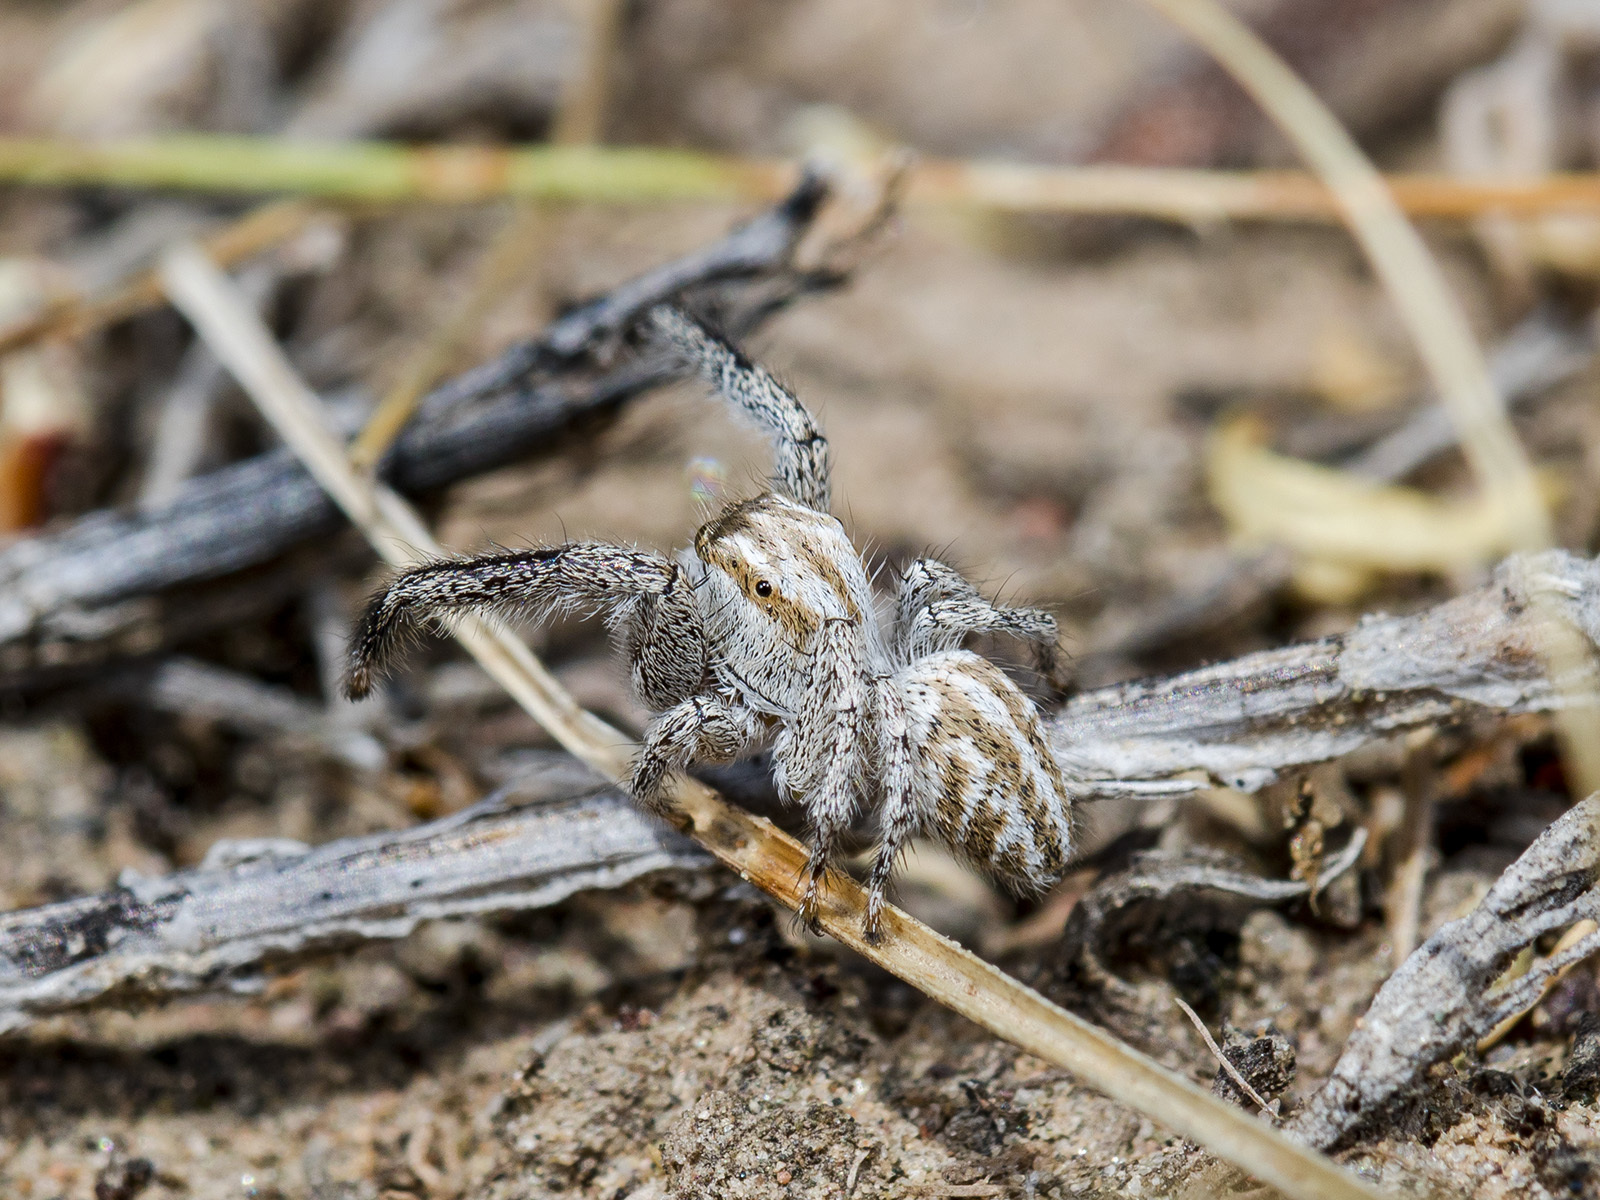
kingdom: Animalia
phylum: Arthropoda
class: Arachnida
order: Araneae
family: Salticidae
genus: Pellenes
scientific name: Pellenes dilutus
